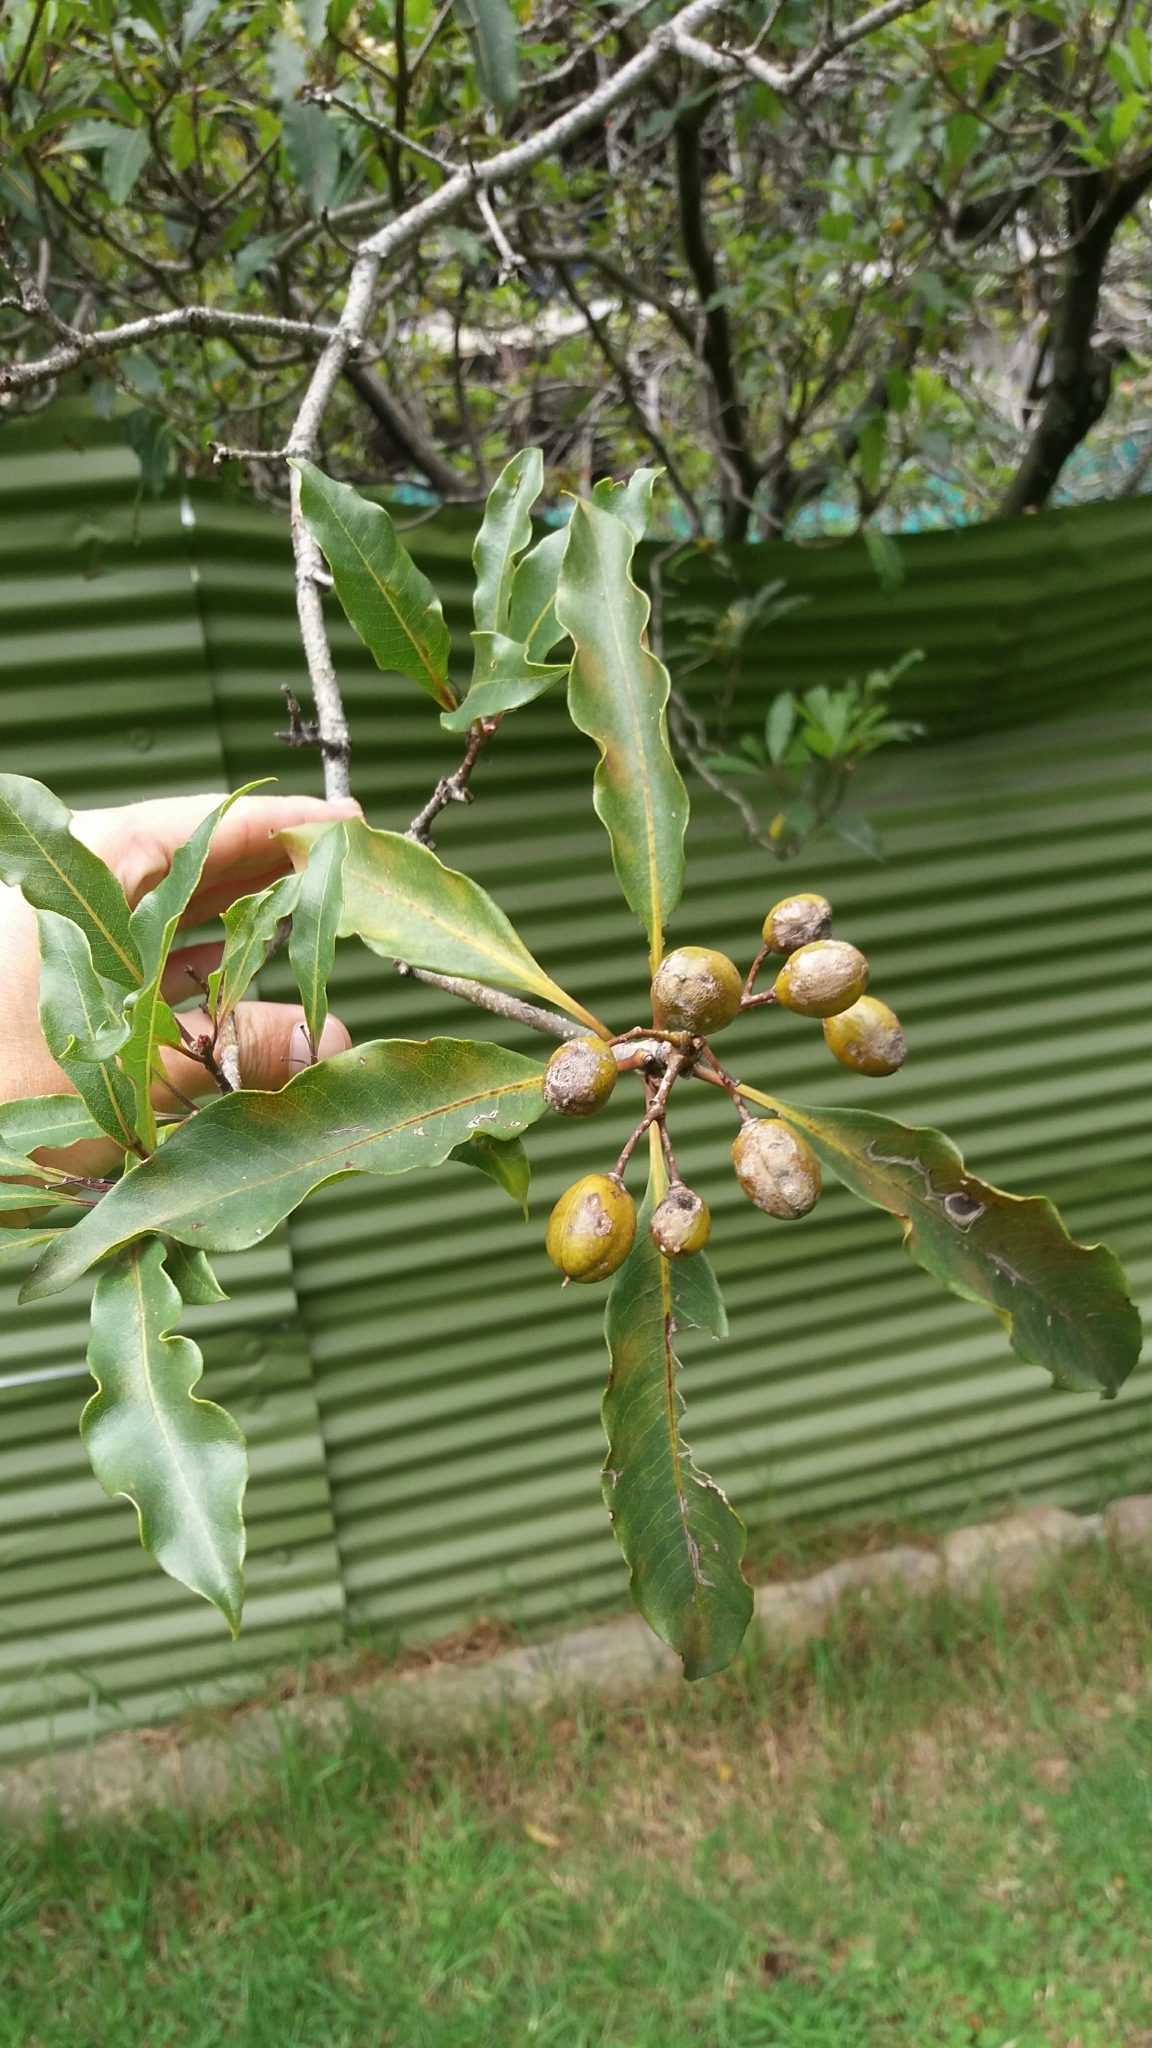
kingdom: Plantae
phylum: Tracheophyta
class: Magnoliopsida
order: Apiales
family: Pittosporaceae
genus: Pittosporum
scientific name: Pittosporum undulatum
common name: Australian cheesewood
